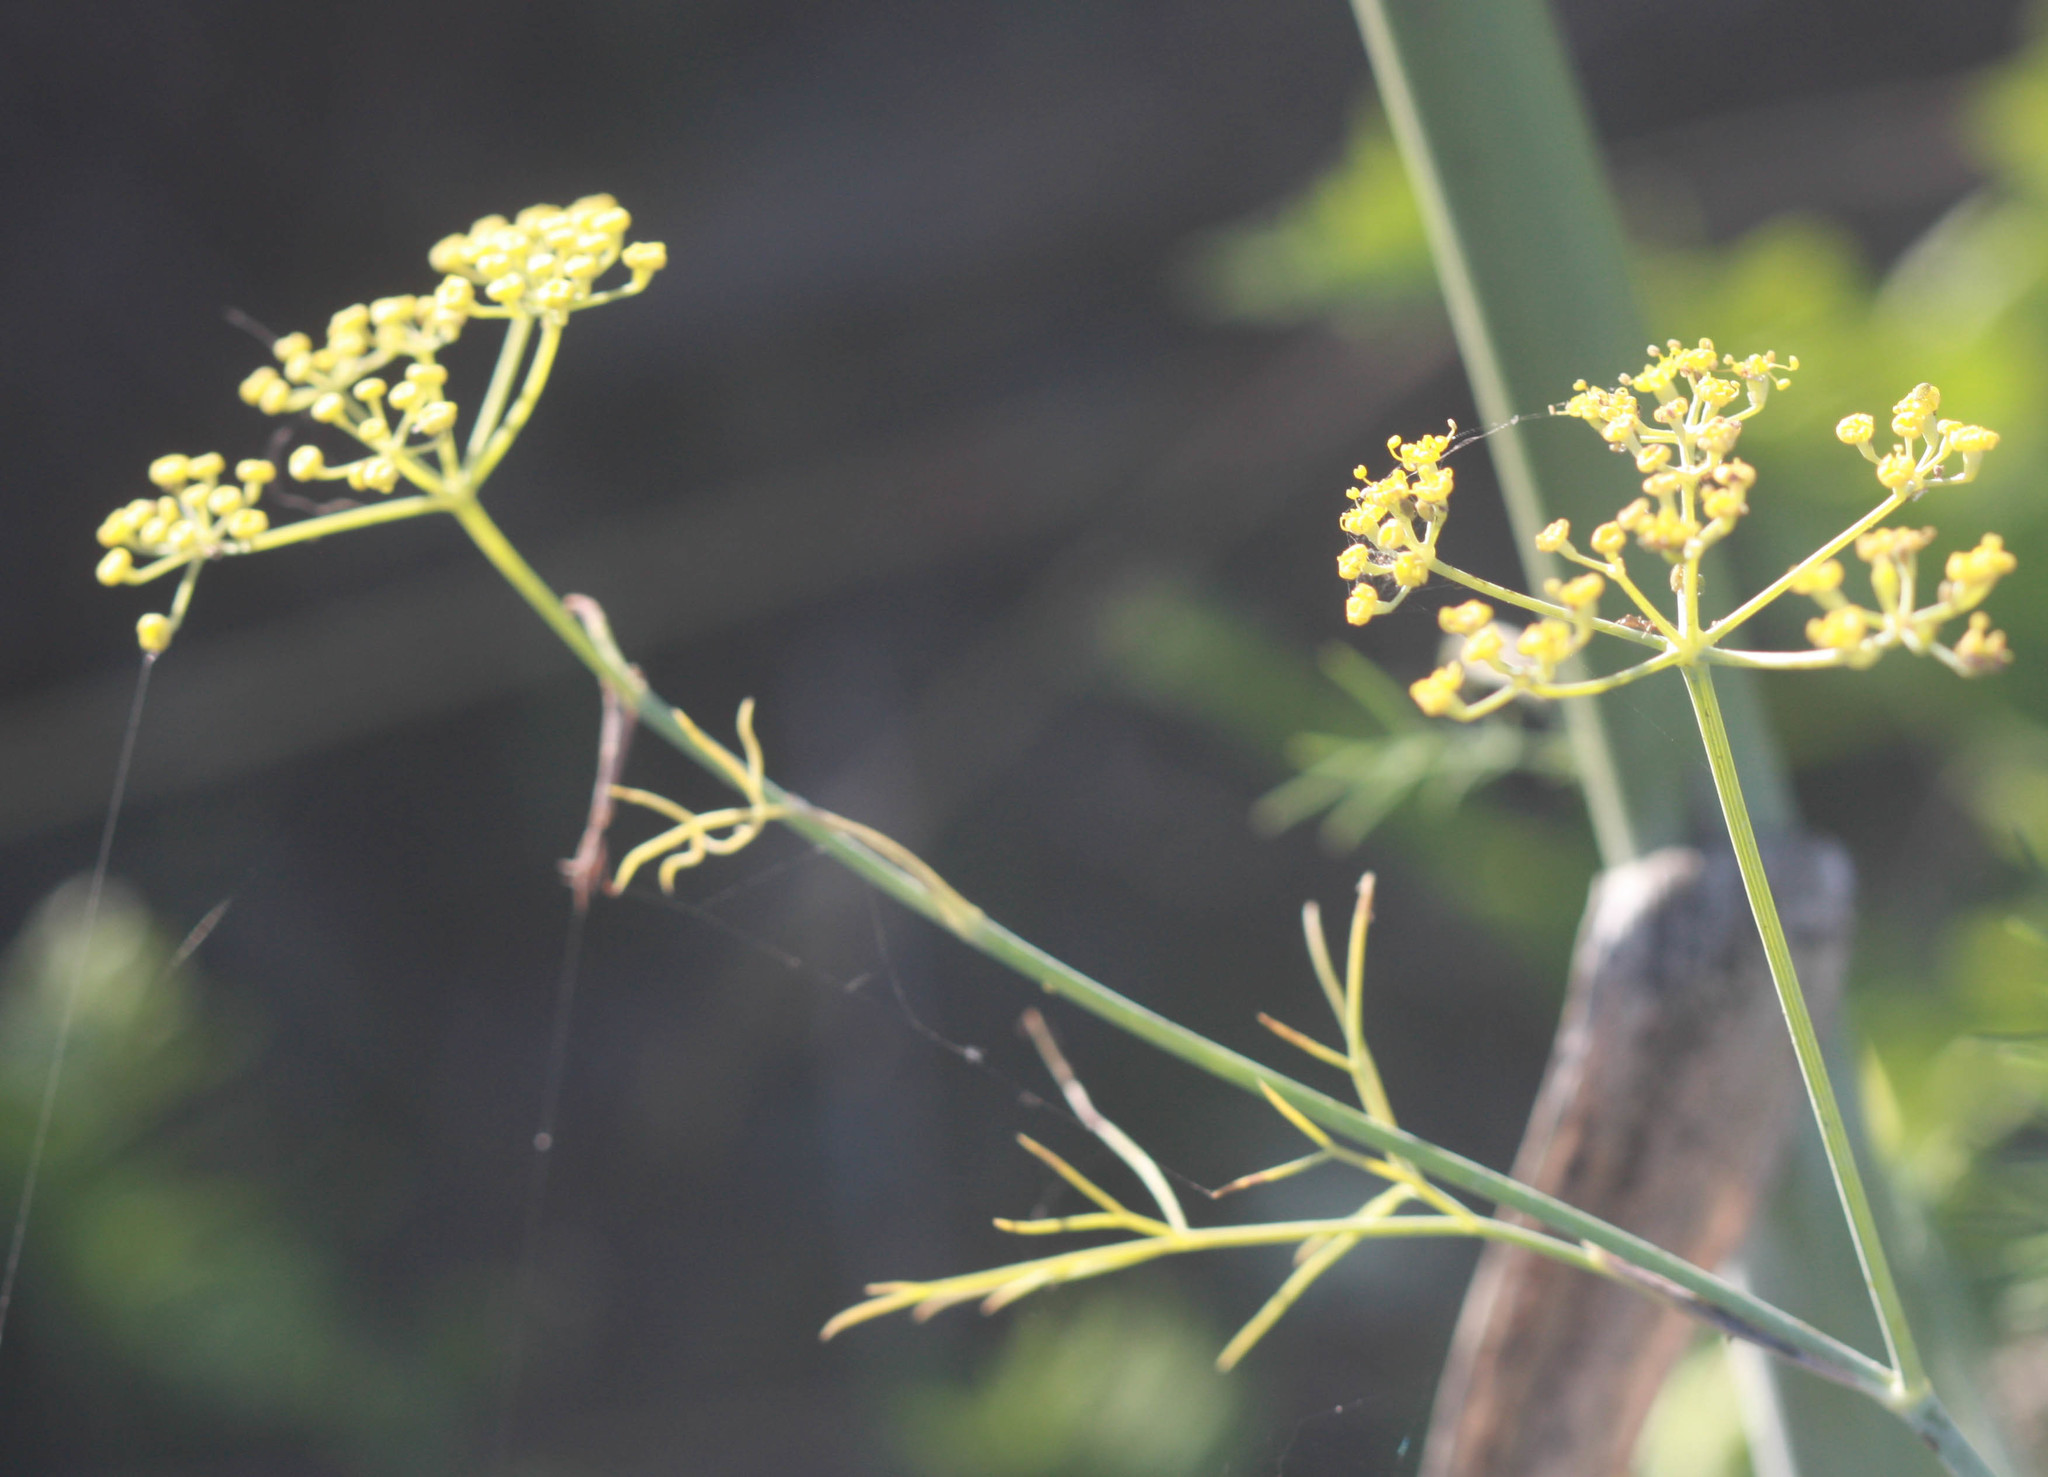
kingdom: Plantae
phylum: Tracheophyta
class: Magnoliopsida
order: Apiales
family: Apiaceae
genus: Foeniculum
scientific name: Foeniculum vulgare
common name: Fennel
